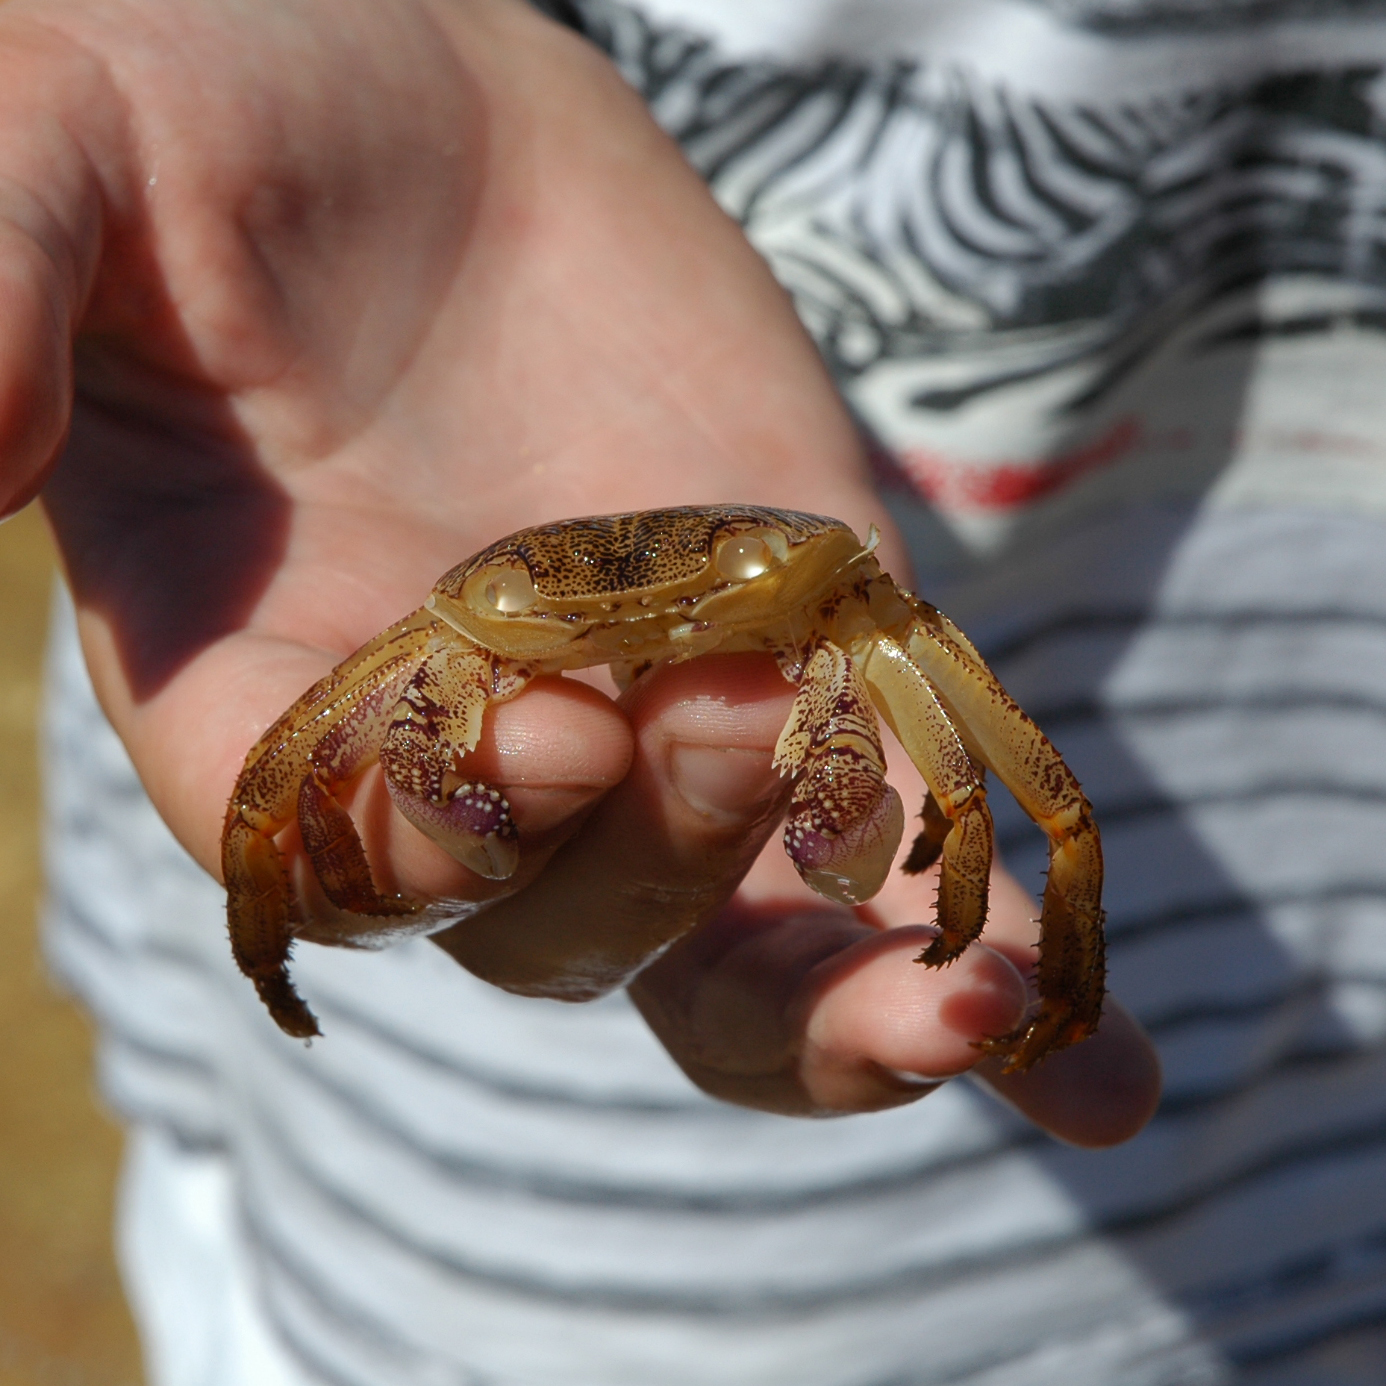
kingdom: Animalia
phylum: Arthropoda
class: Malacostraca
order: Decapoda
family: Grapsidae
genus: Leptograpsus
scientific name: Leptograpsus variegatus
